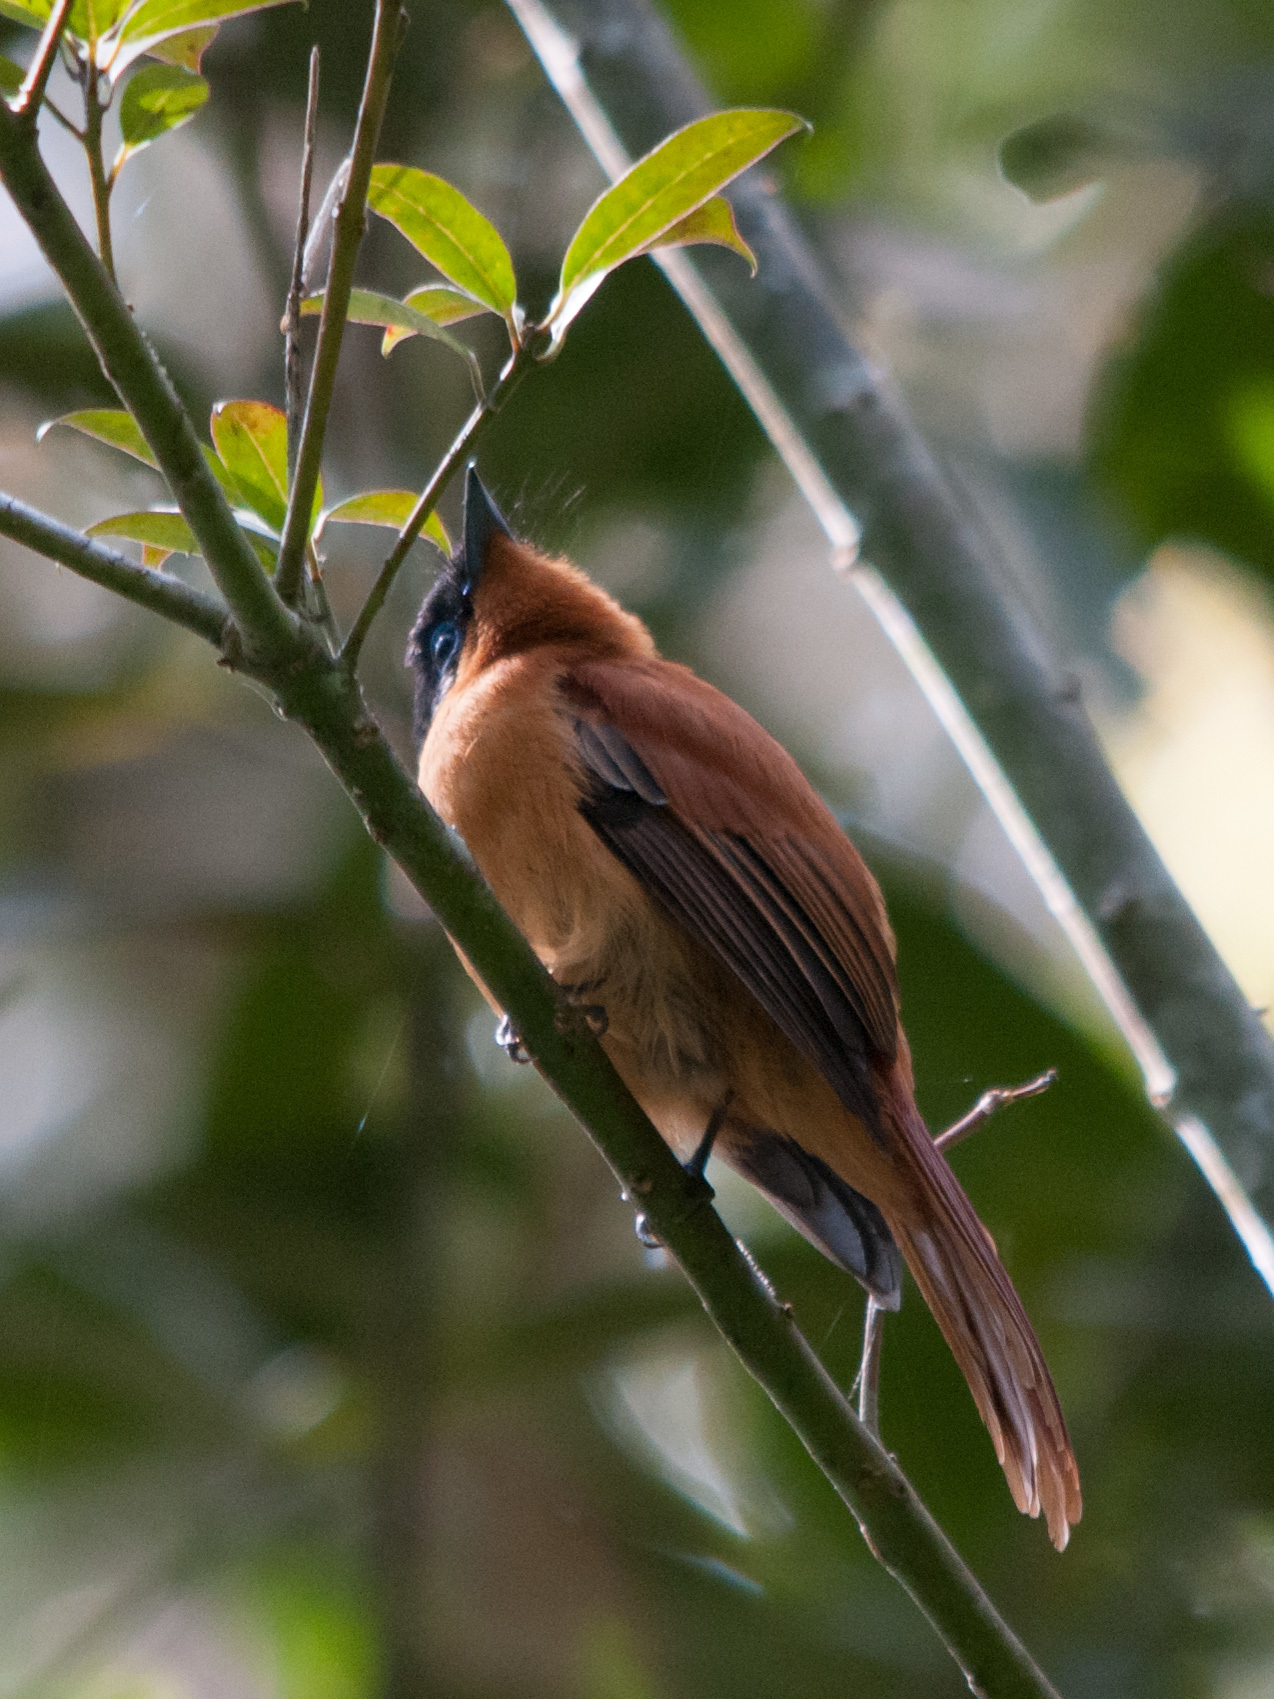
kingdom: Animalia
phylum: Chordata
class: Aves
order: Passeriformes
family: Monarchidae
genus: Terpsiphone
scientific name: Terpsiphone mutata
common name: Malagasy paradise flycatcher
